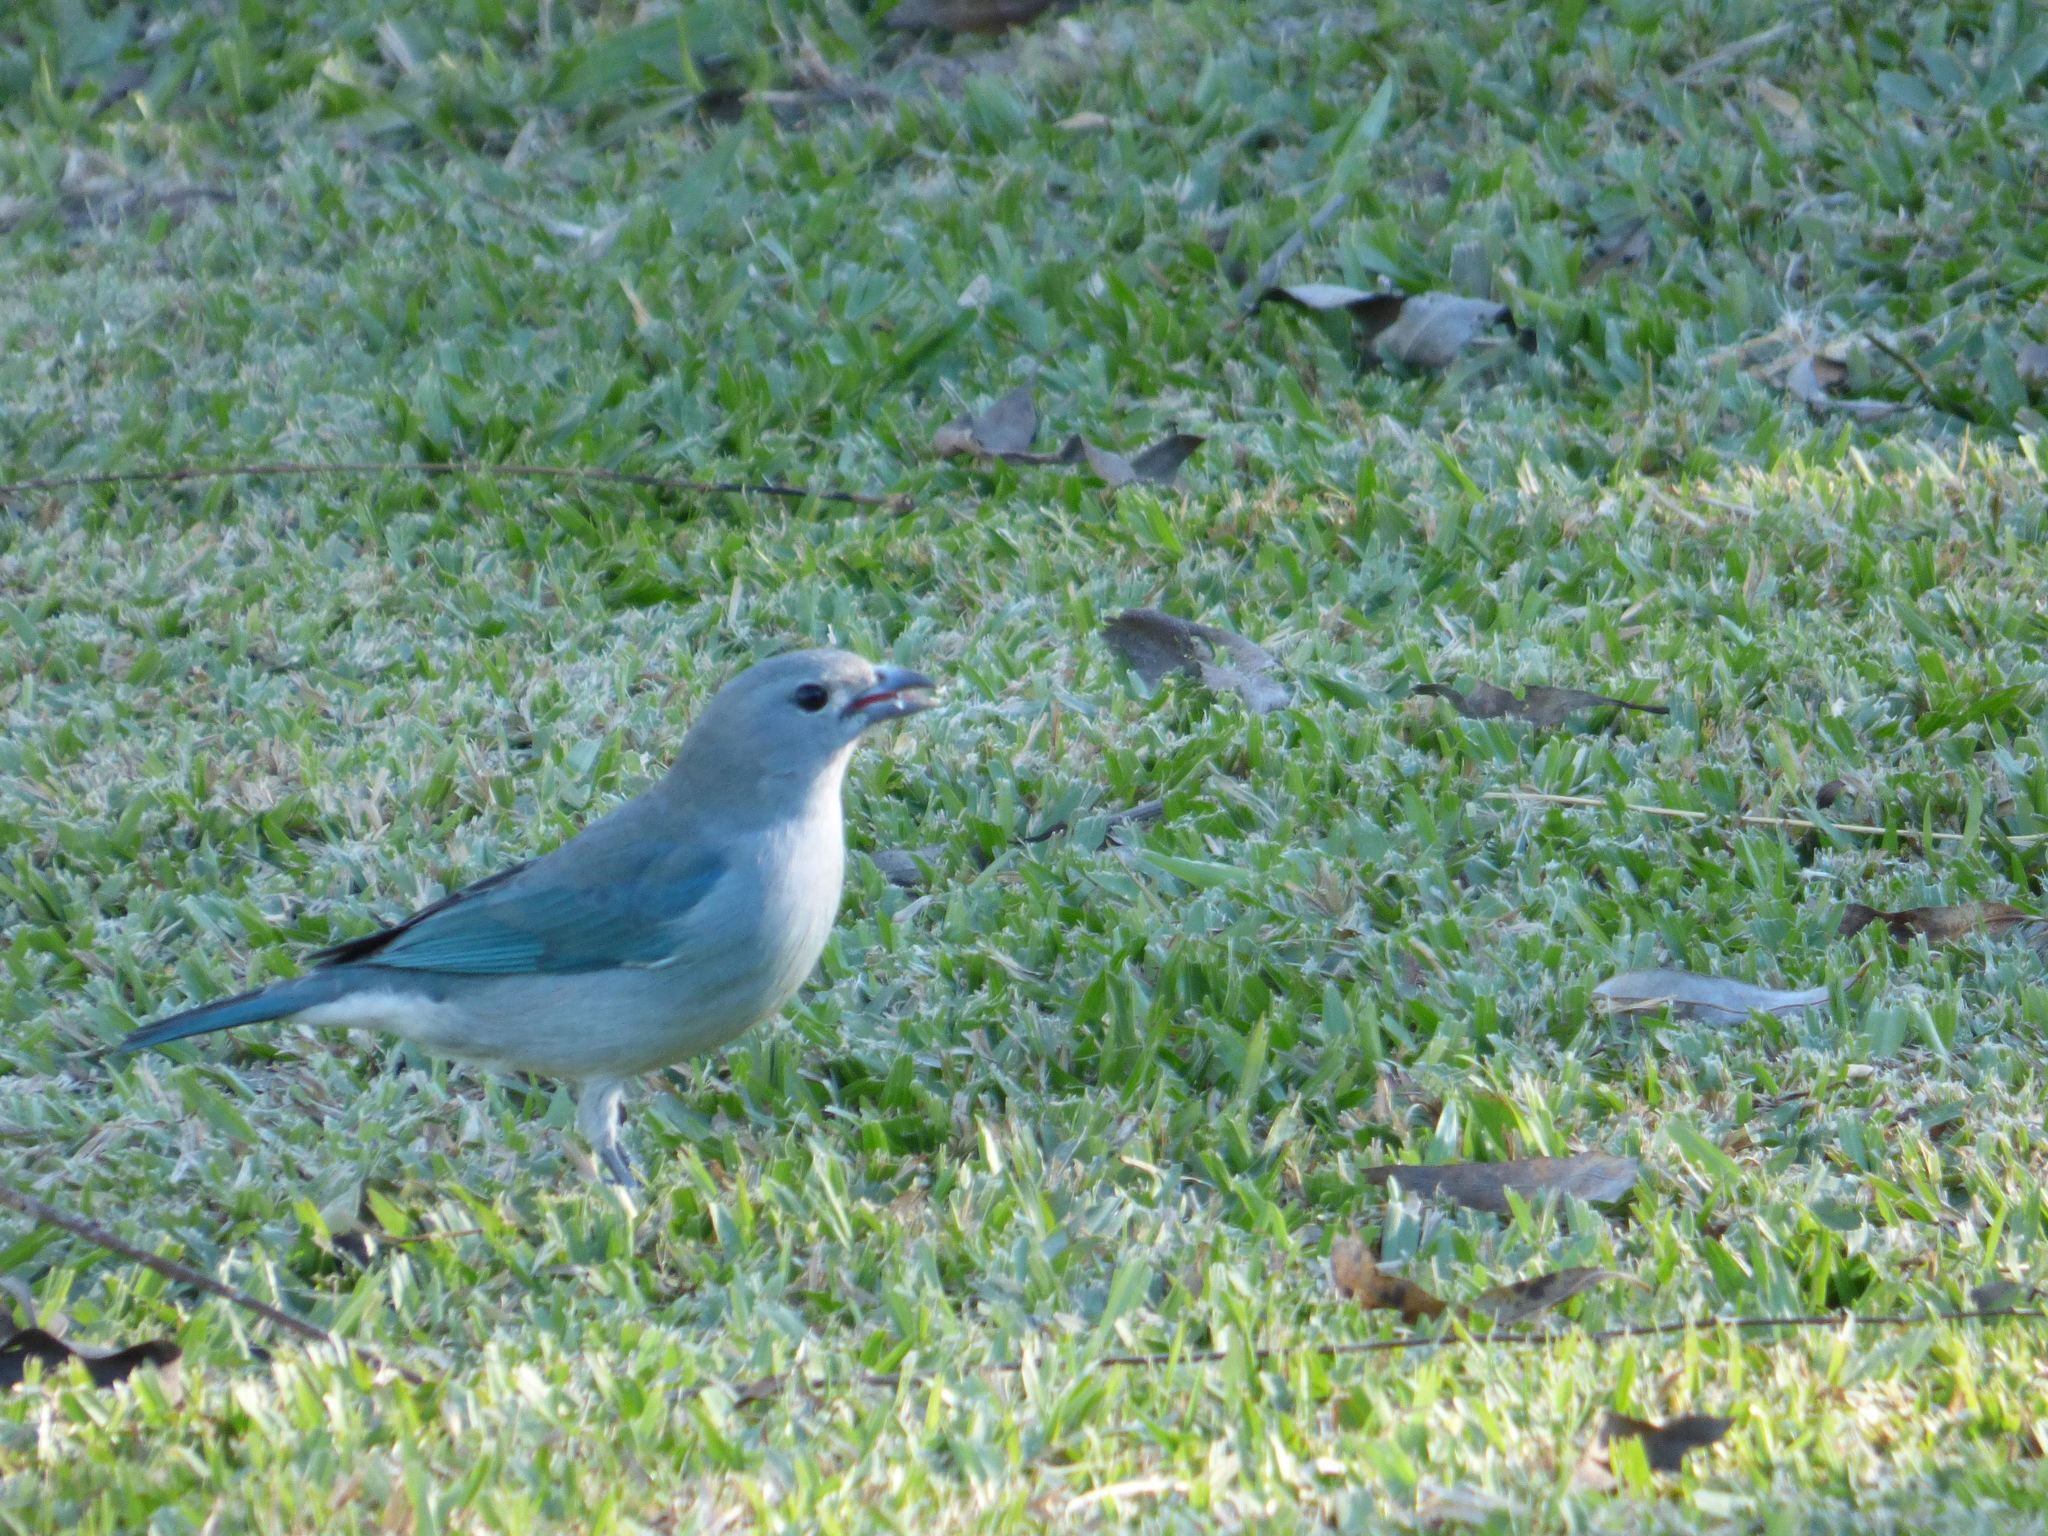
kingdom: Animalia
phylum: Chordata
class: Aves
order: Passeriformes
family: Thraupidae
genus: Thraupis
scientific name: Thraupis sayaca
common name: Sayaca tanager
